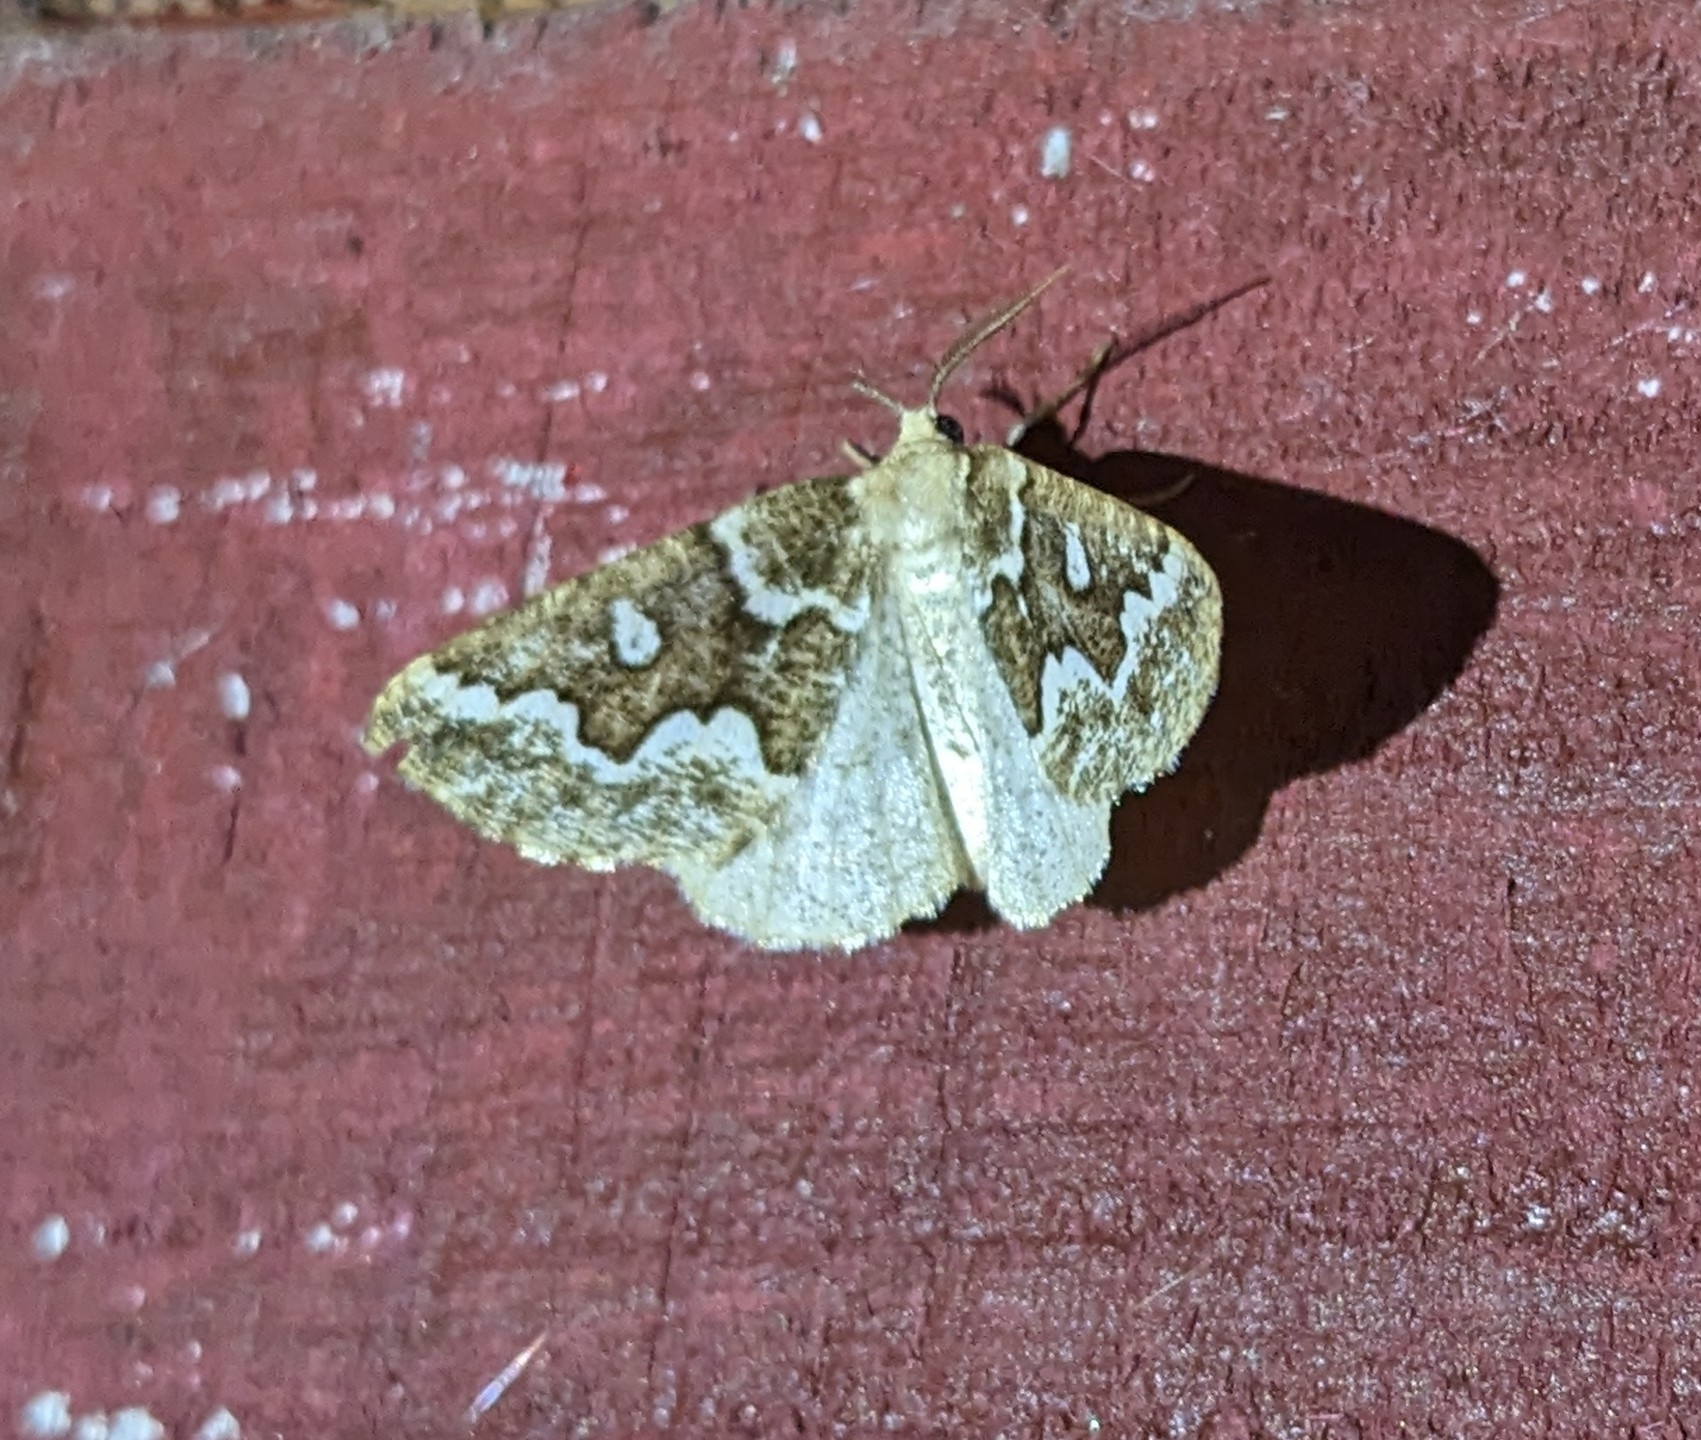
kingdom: Animalia
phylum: Arthropoda
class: Insecta
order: Lepidoptera
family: Geometridae
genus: Caripeta
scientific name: Caripeta divisata
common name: Gray spruce looper
